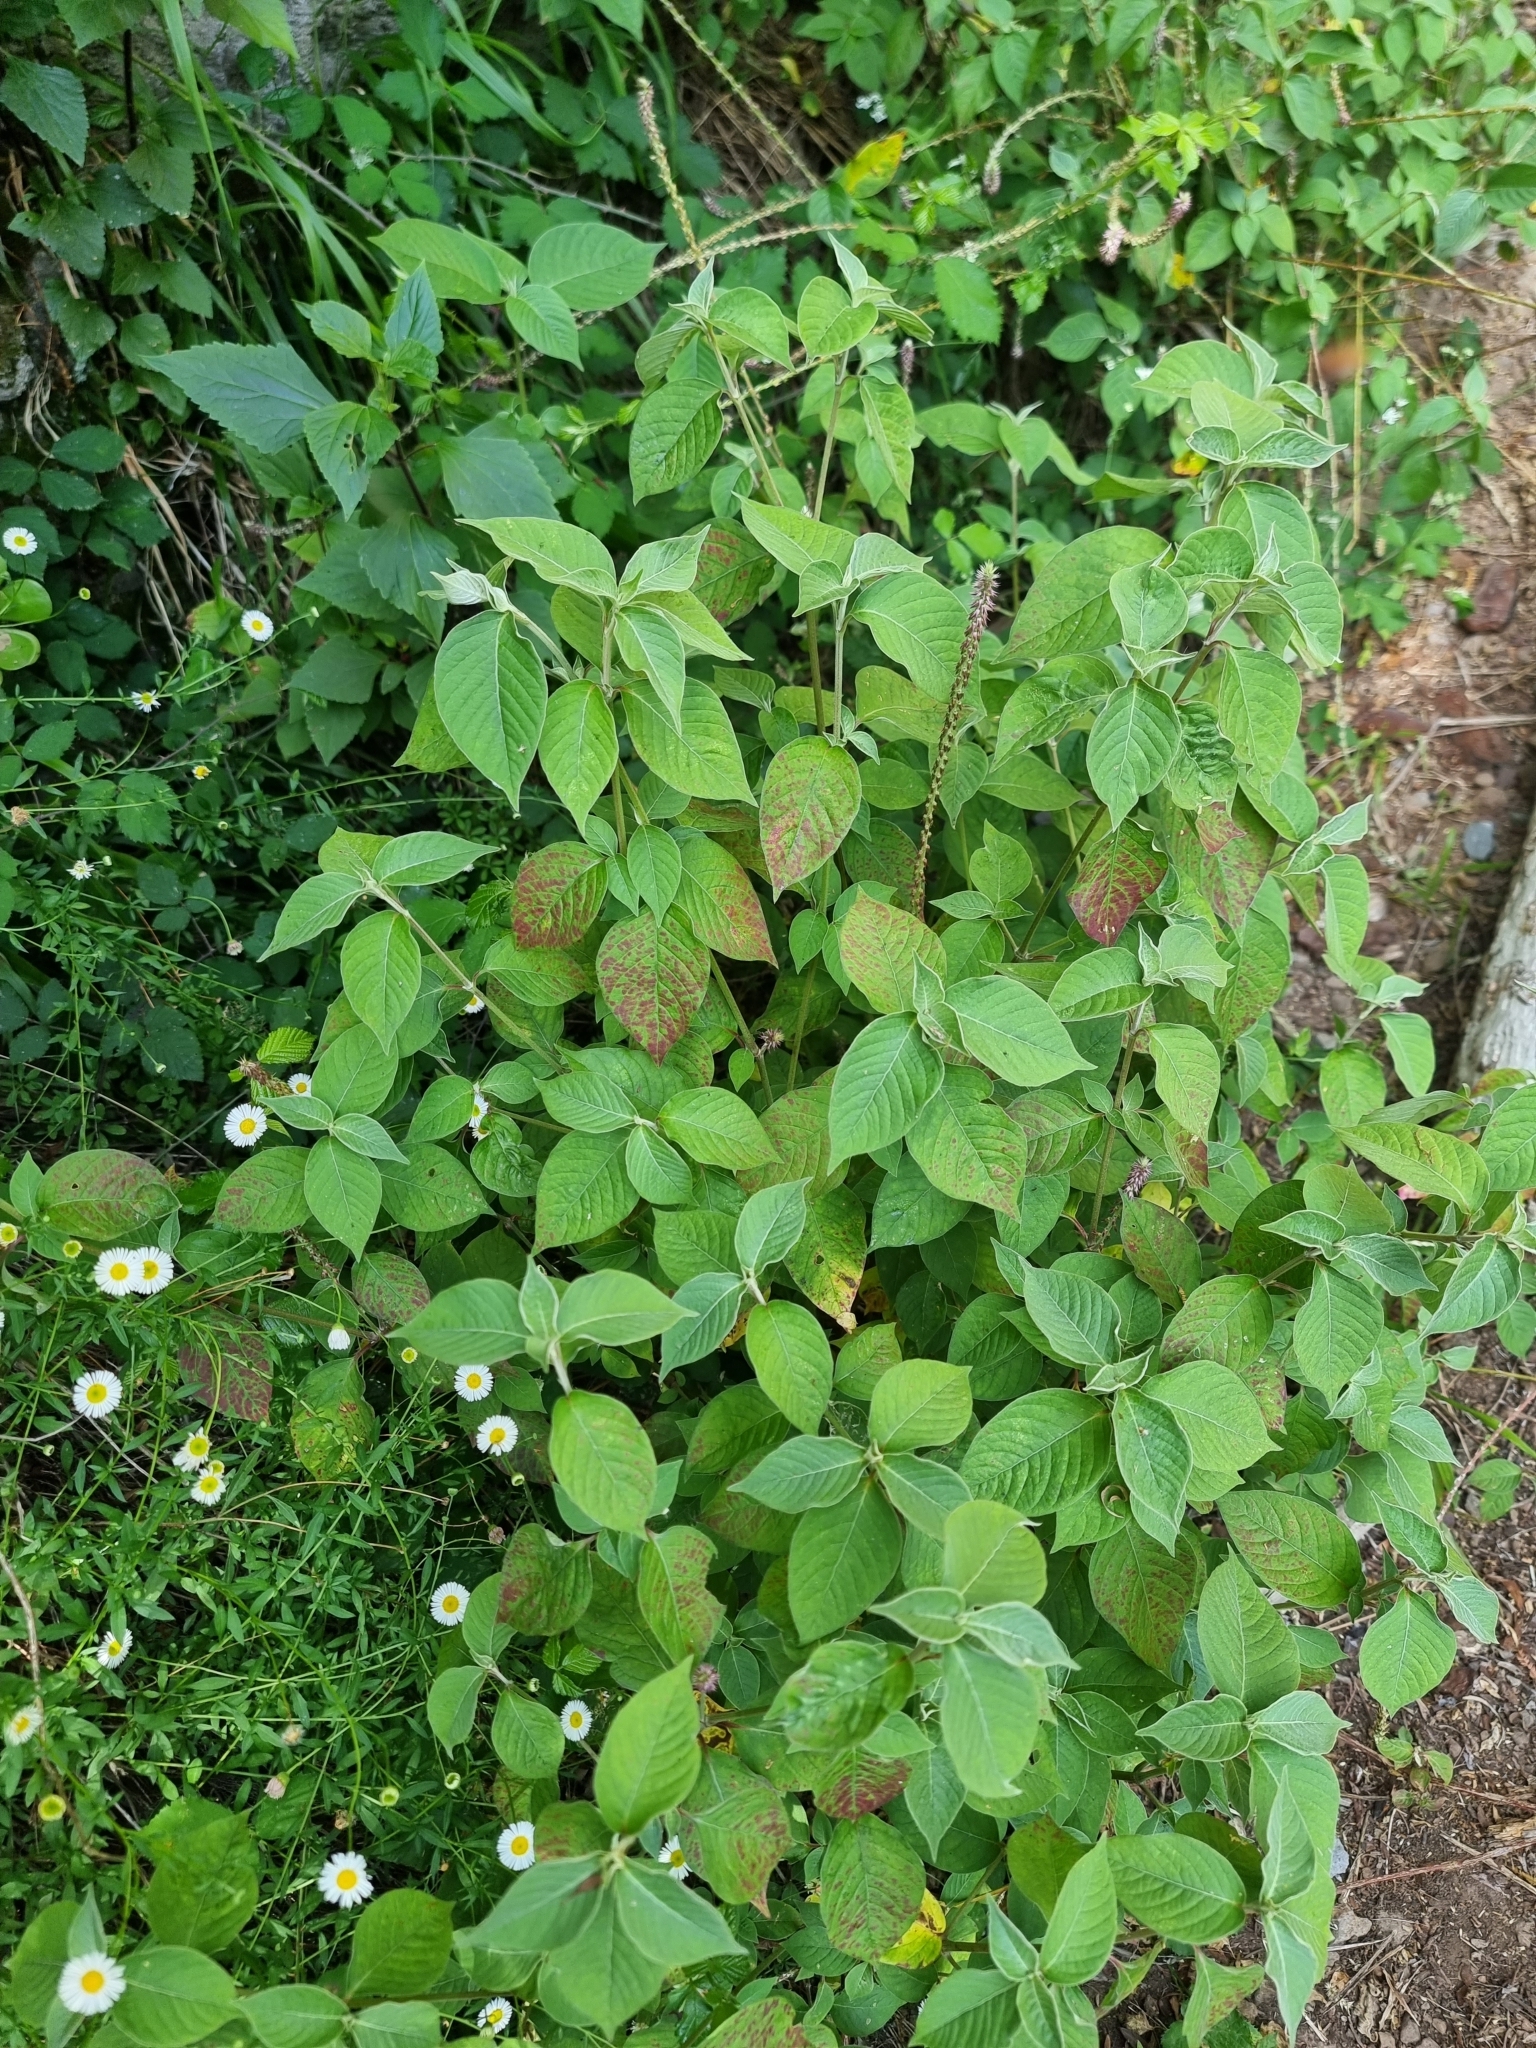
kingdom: Plantae
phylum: Tracheophyta
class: Magnoliopsida
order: Caryophyllales
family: Amaranthaceae
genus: Achyranthes
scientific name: Achyranthes aspera
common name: Devil's horsewhip
